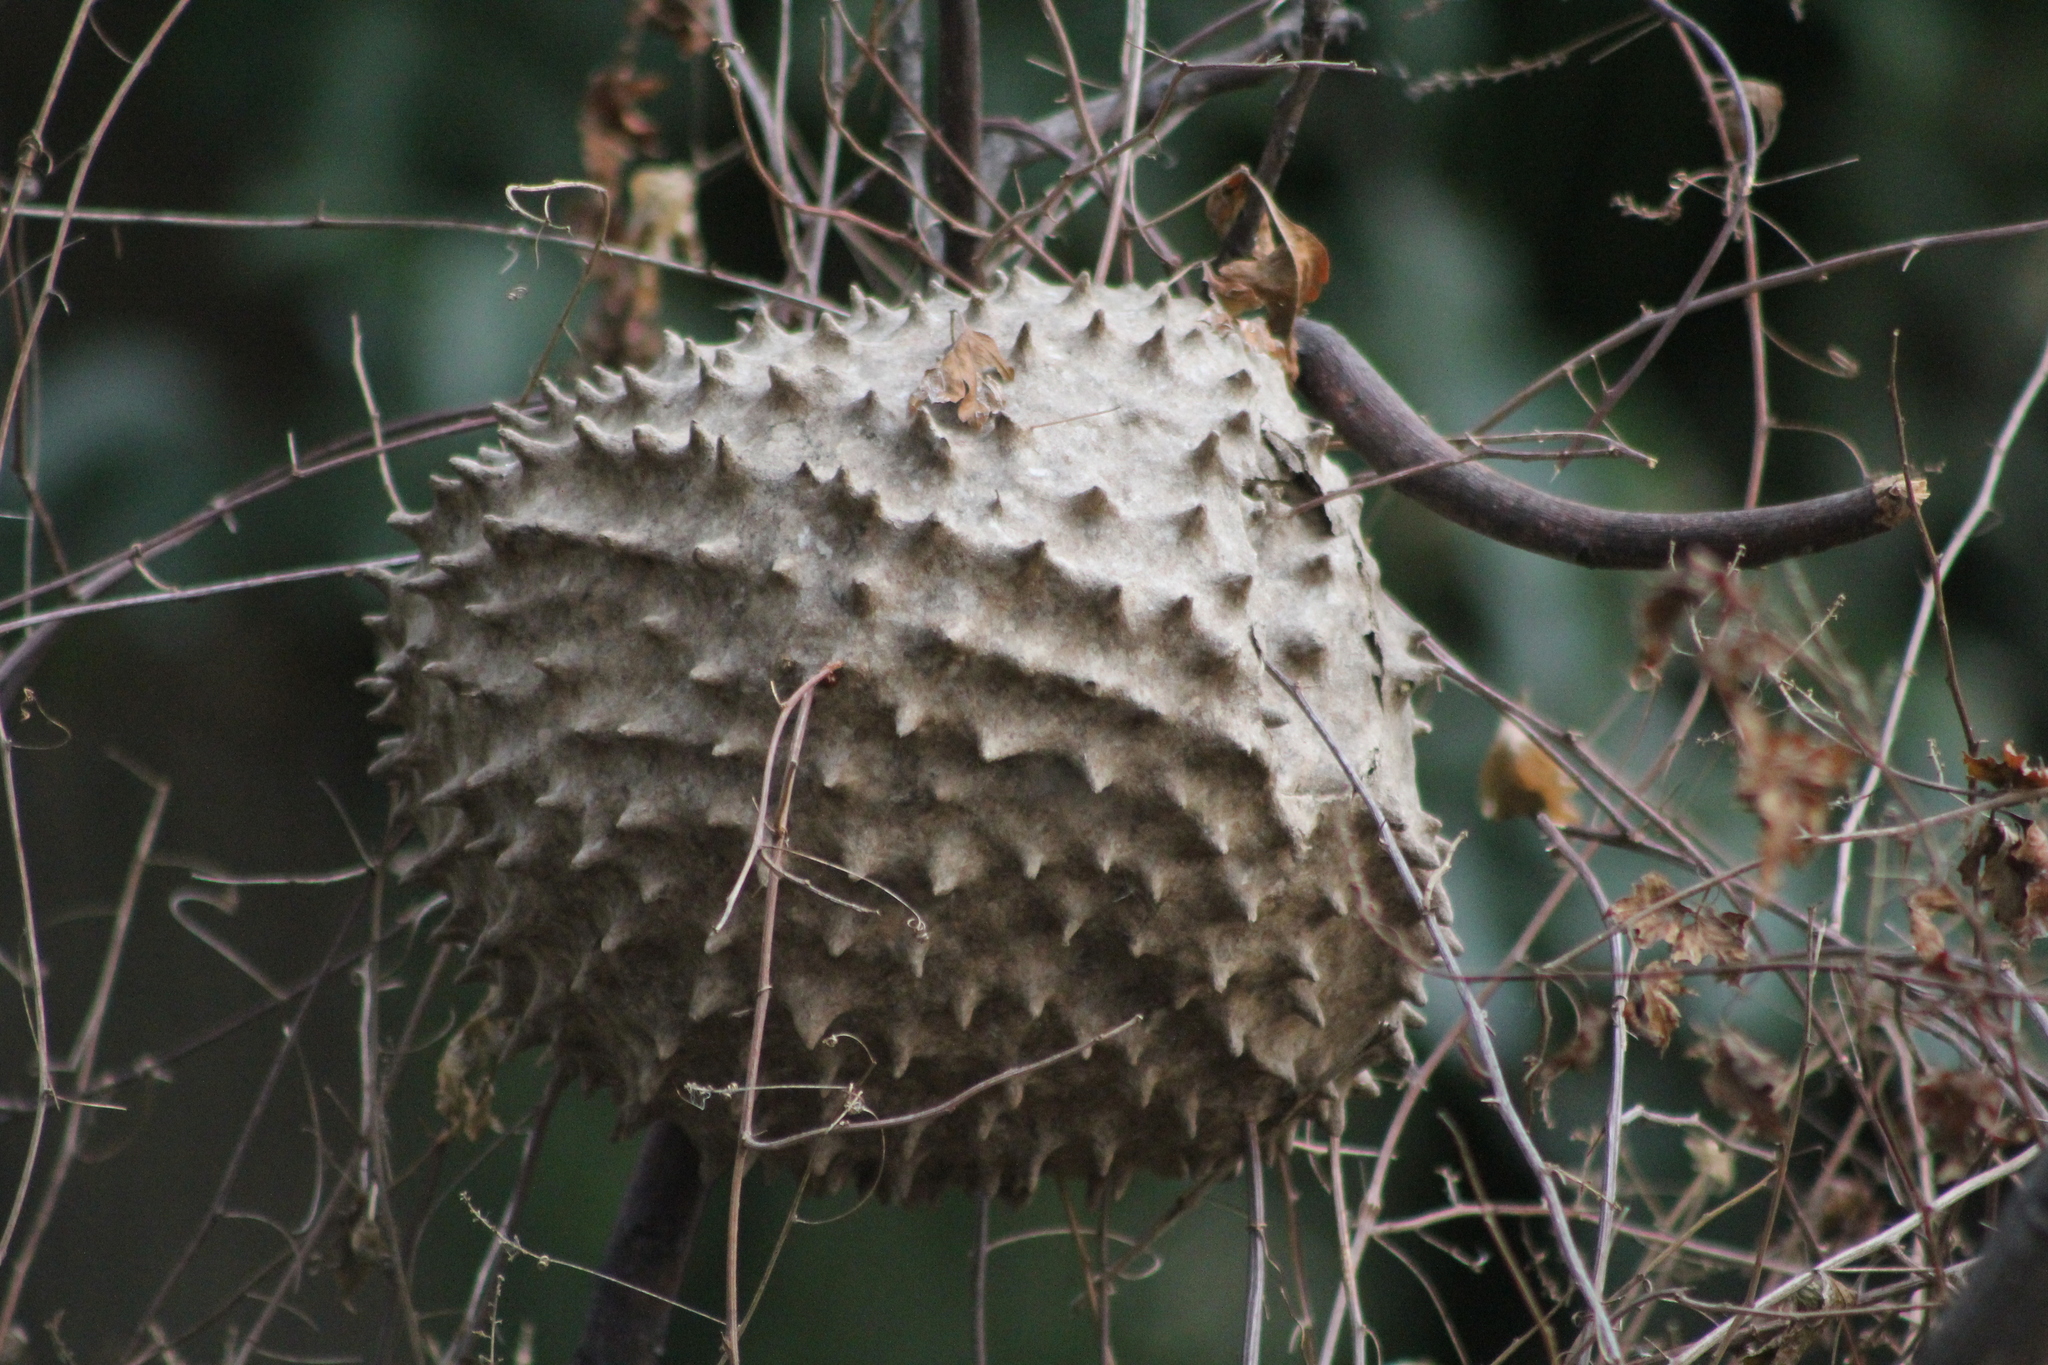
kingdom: Animalia
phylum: Arthropoda
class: Insecta
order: Hymenoptera
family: Eumenidae
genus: Polybia
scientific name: Polybia scutellaris
